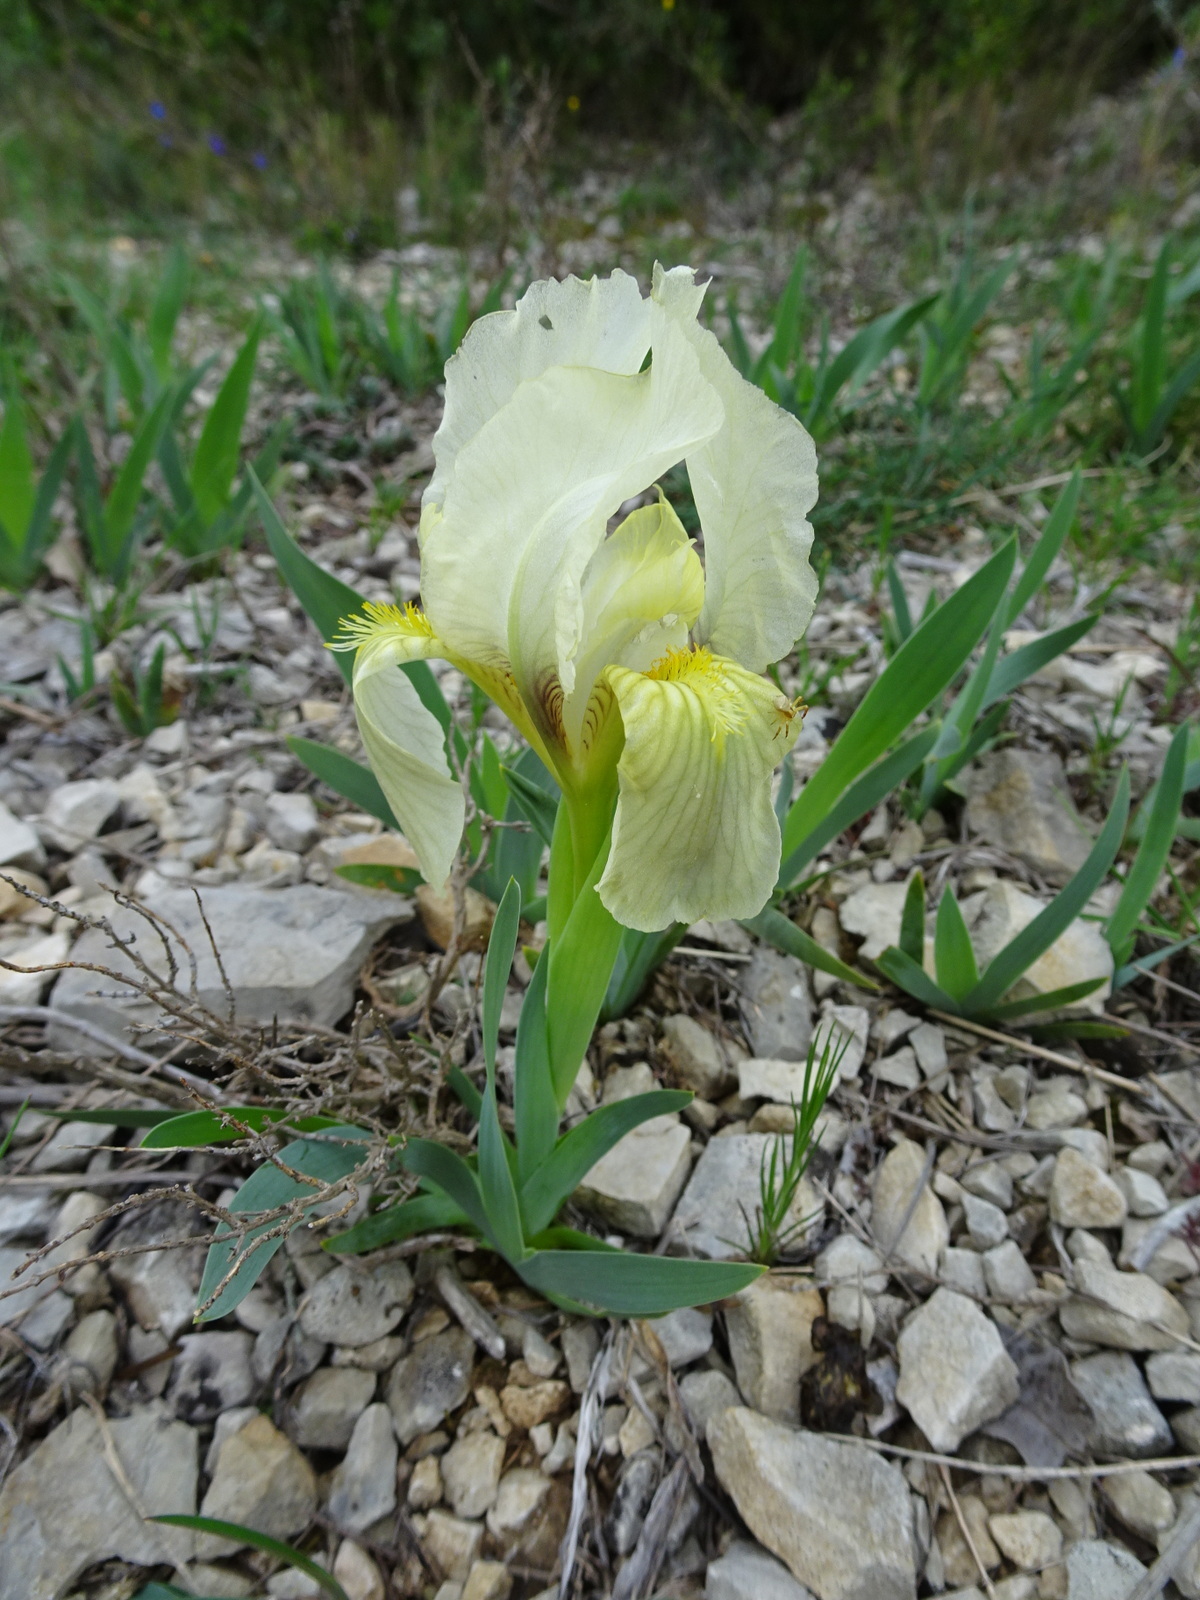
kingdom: Plantae
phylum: Tracheophyta
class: Liliopsida
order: Asparagales
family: Iridaceae
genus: Iris
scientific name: Iris lutescens
